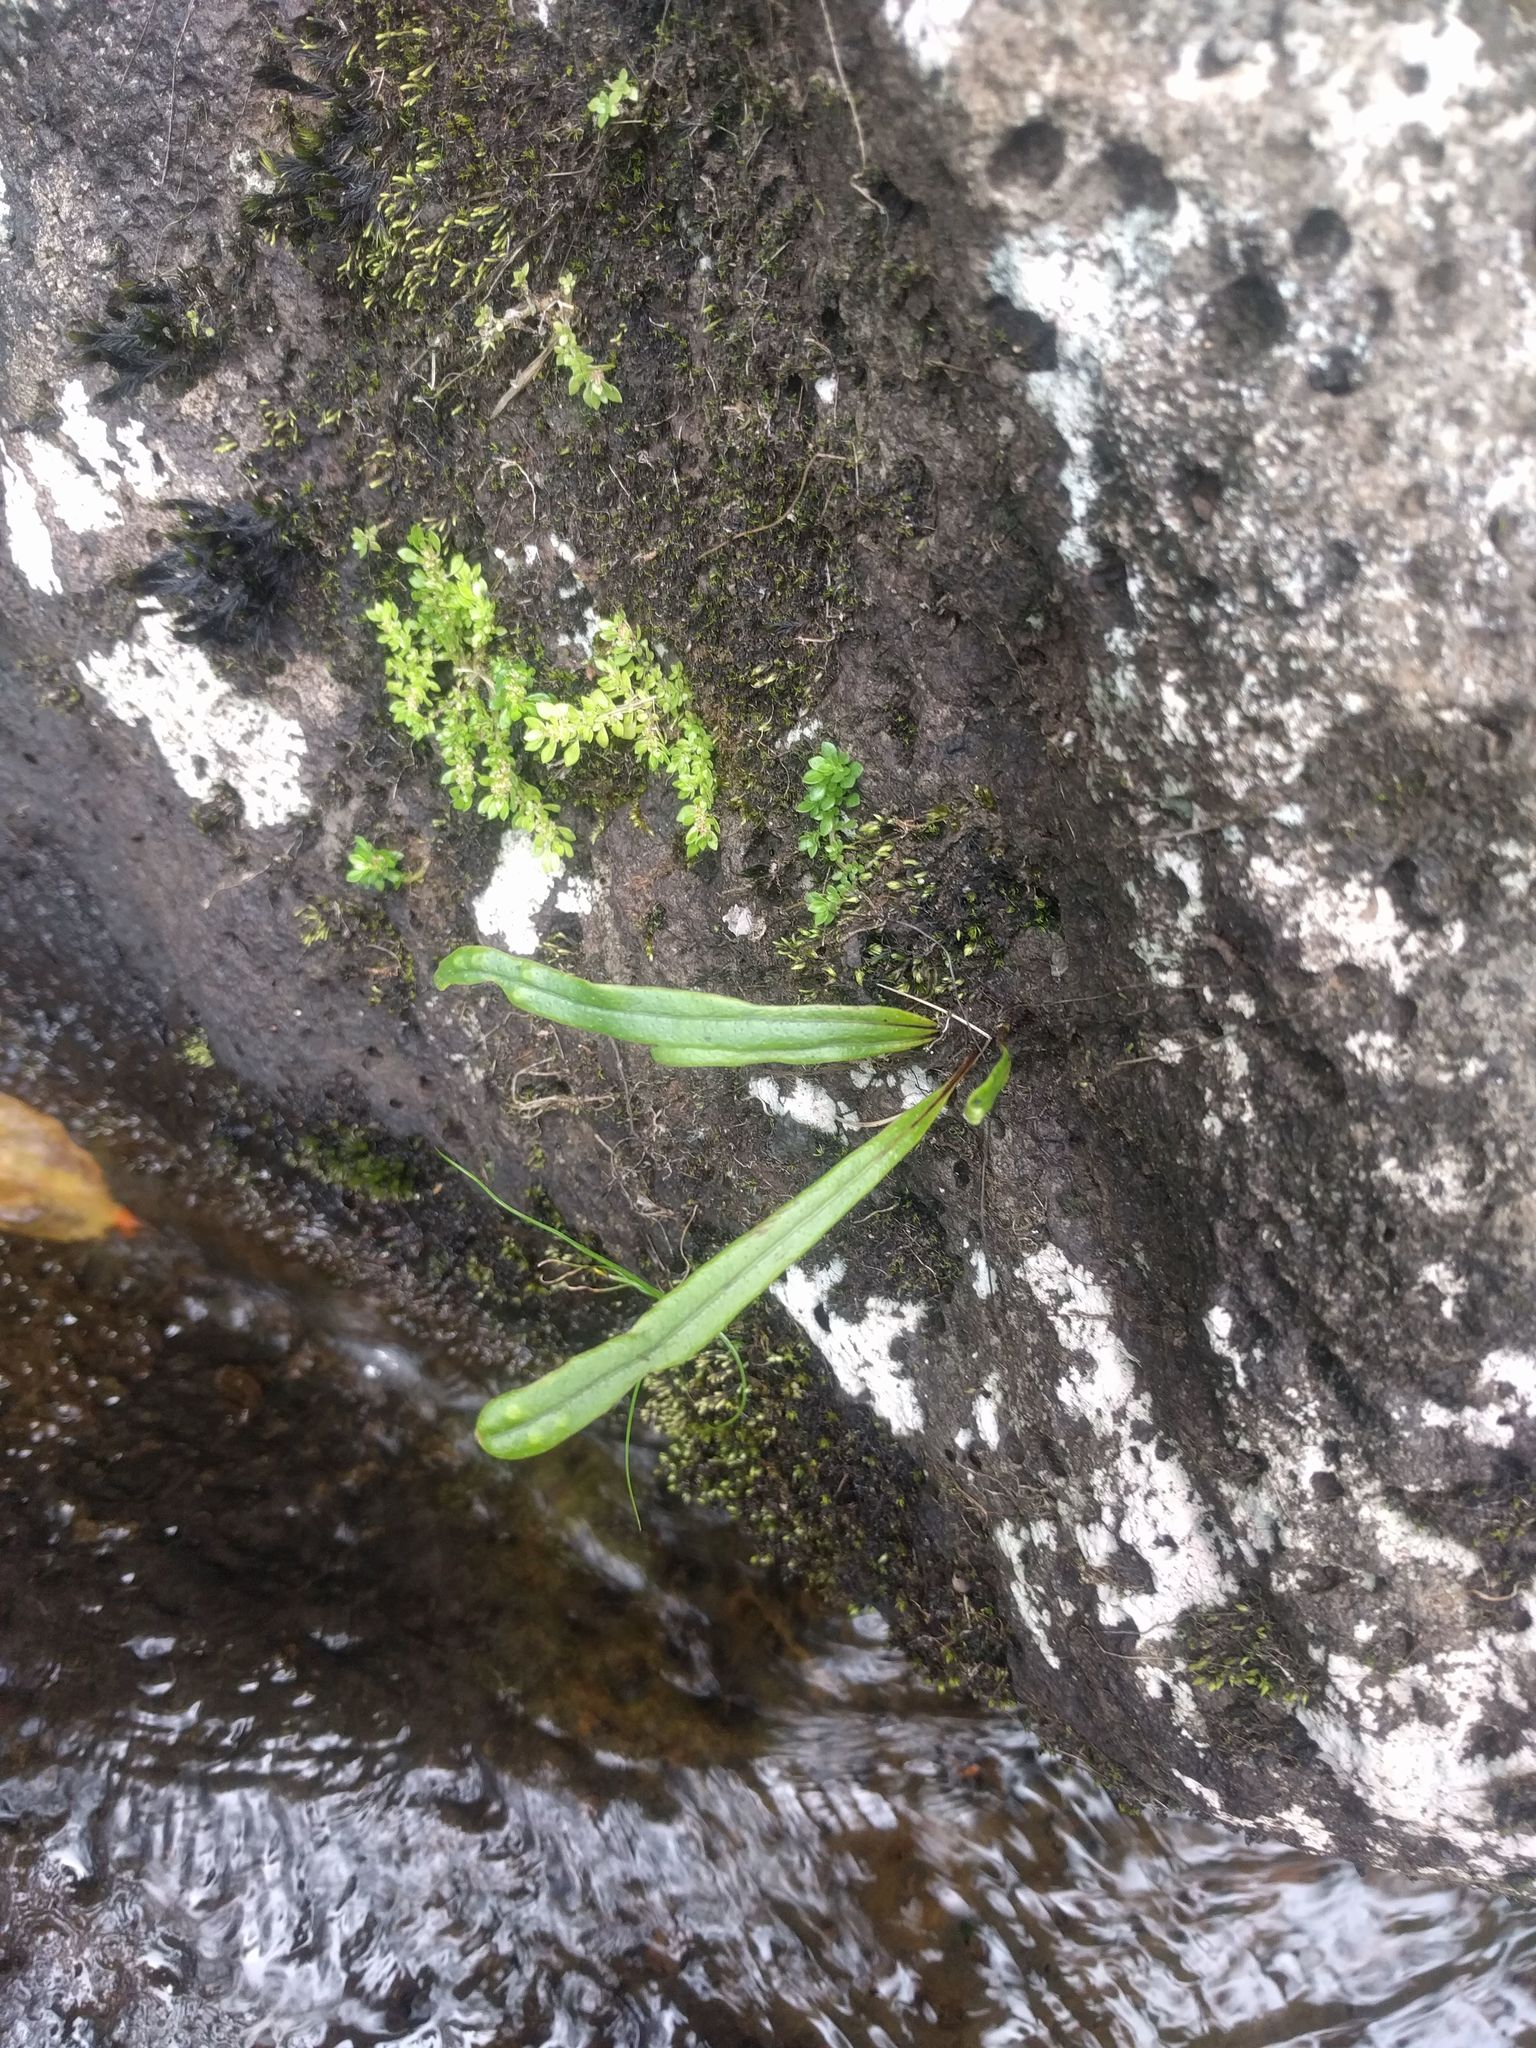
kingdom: Plantae
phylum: Tracheophyta
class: Polypodiopsida
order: Polypodiales
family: Polypodiaceae
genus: Lepisorus
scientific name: Lepisorus thunbergianus
